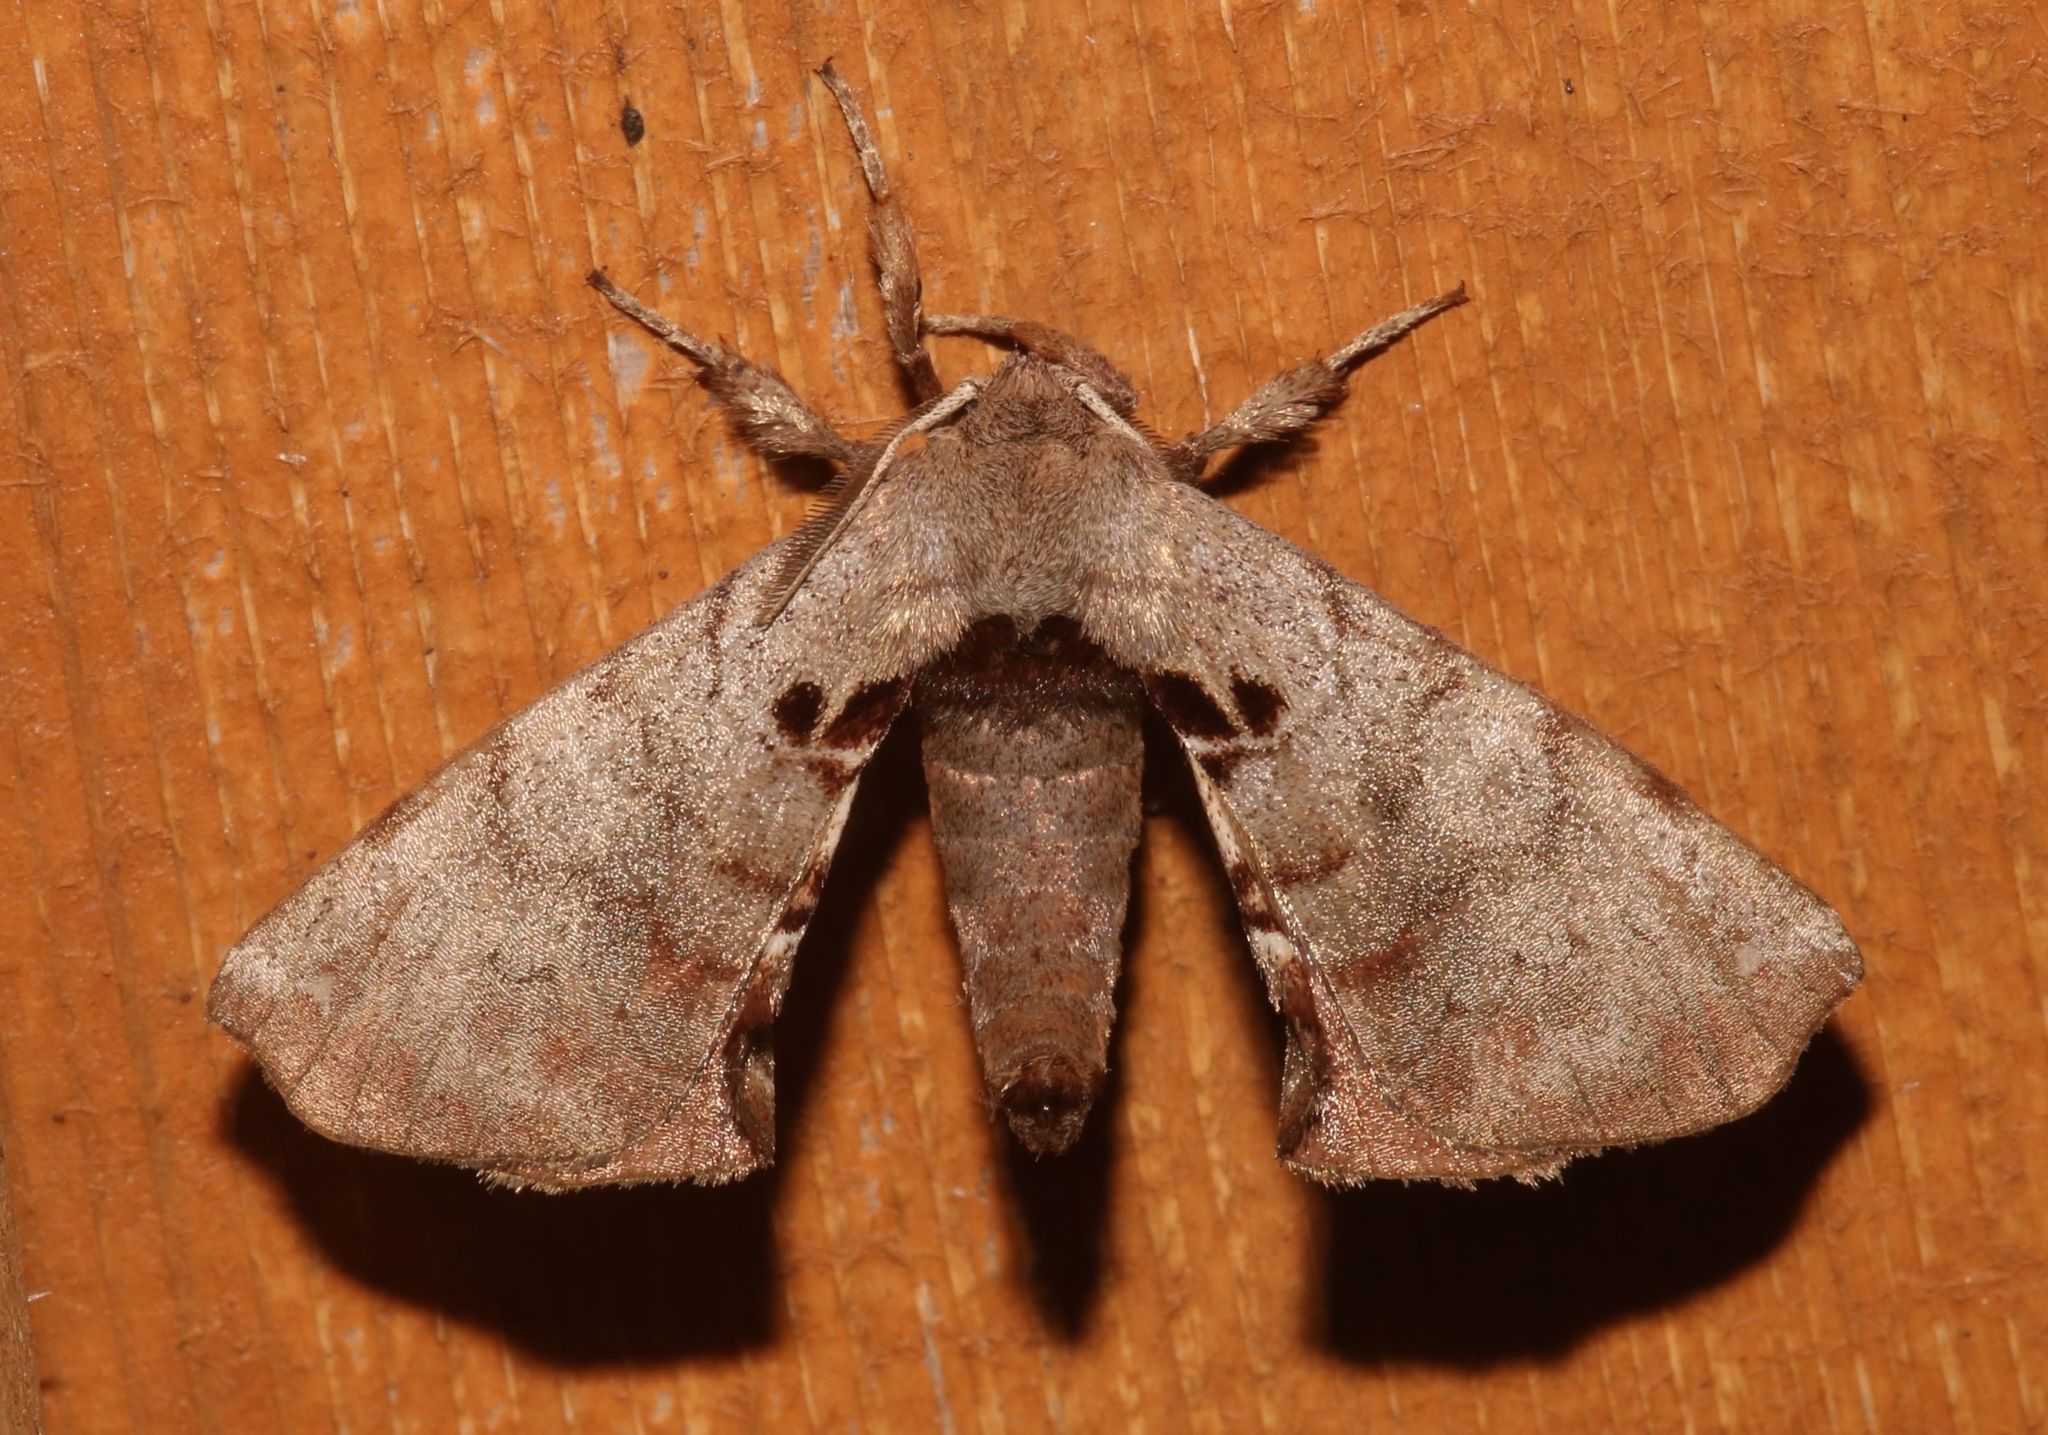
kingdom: Animalia
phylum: Arthropoda
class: Insecta
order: Lepidoptera
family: Apatelodidae
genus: Hygrochroa
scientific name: Hygrochroa Apatelodes torrefacta
